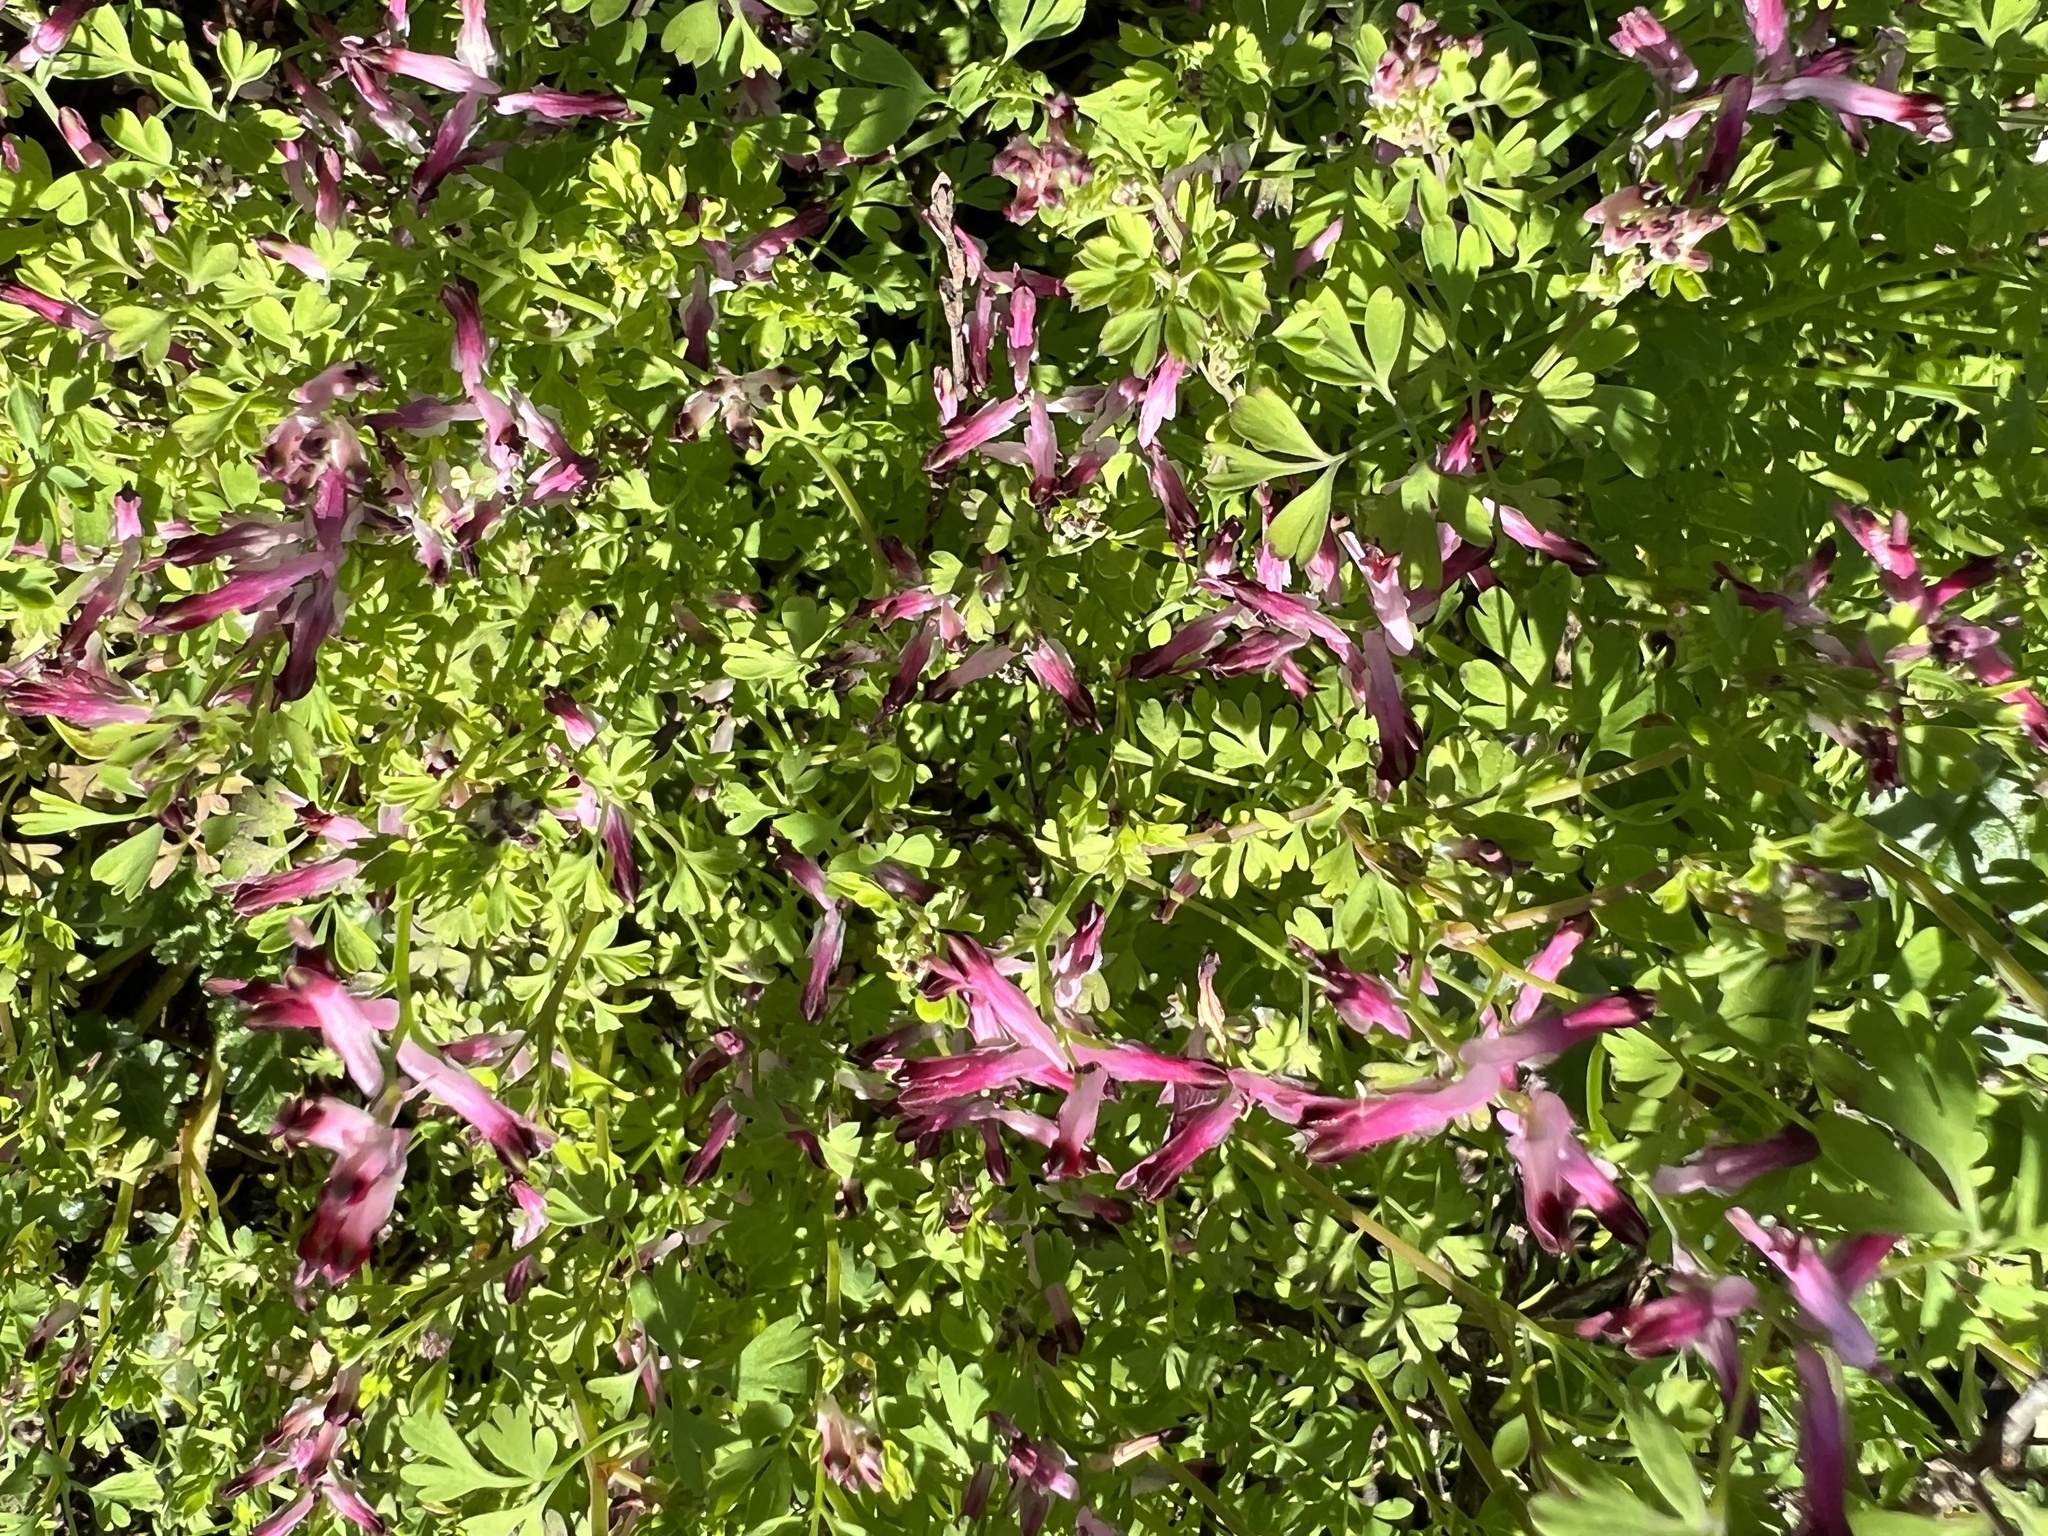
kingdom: Plantae
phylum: Tracheophyta
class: Magnoliopsida
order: Ranunculales
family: Papaveraceae
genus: Fumaria
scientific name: Fumaria muralis
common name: Common ramping-fumitory
